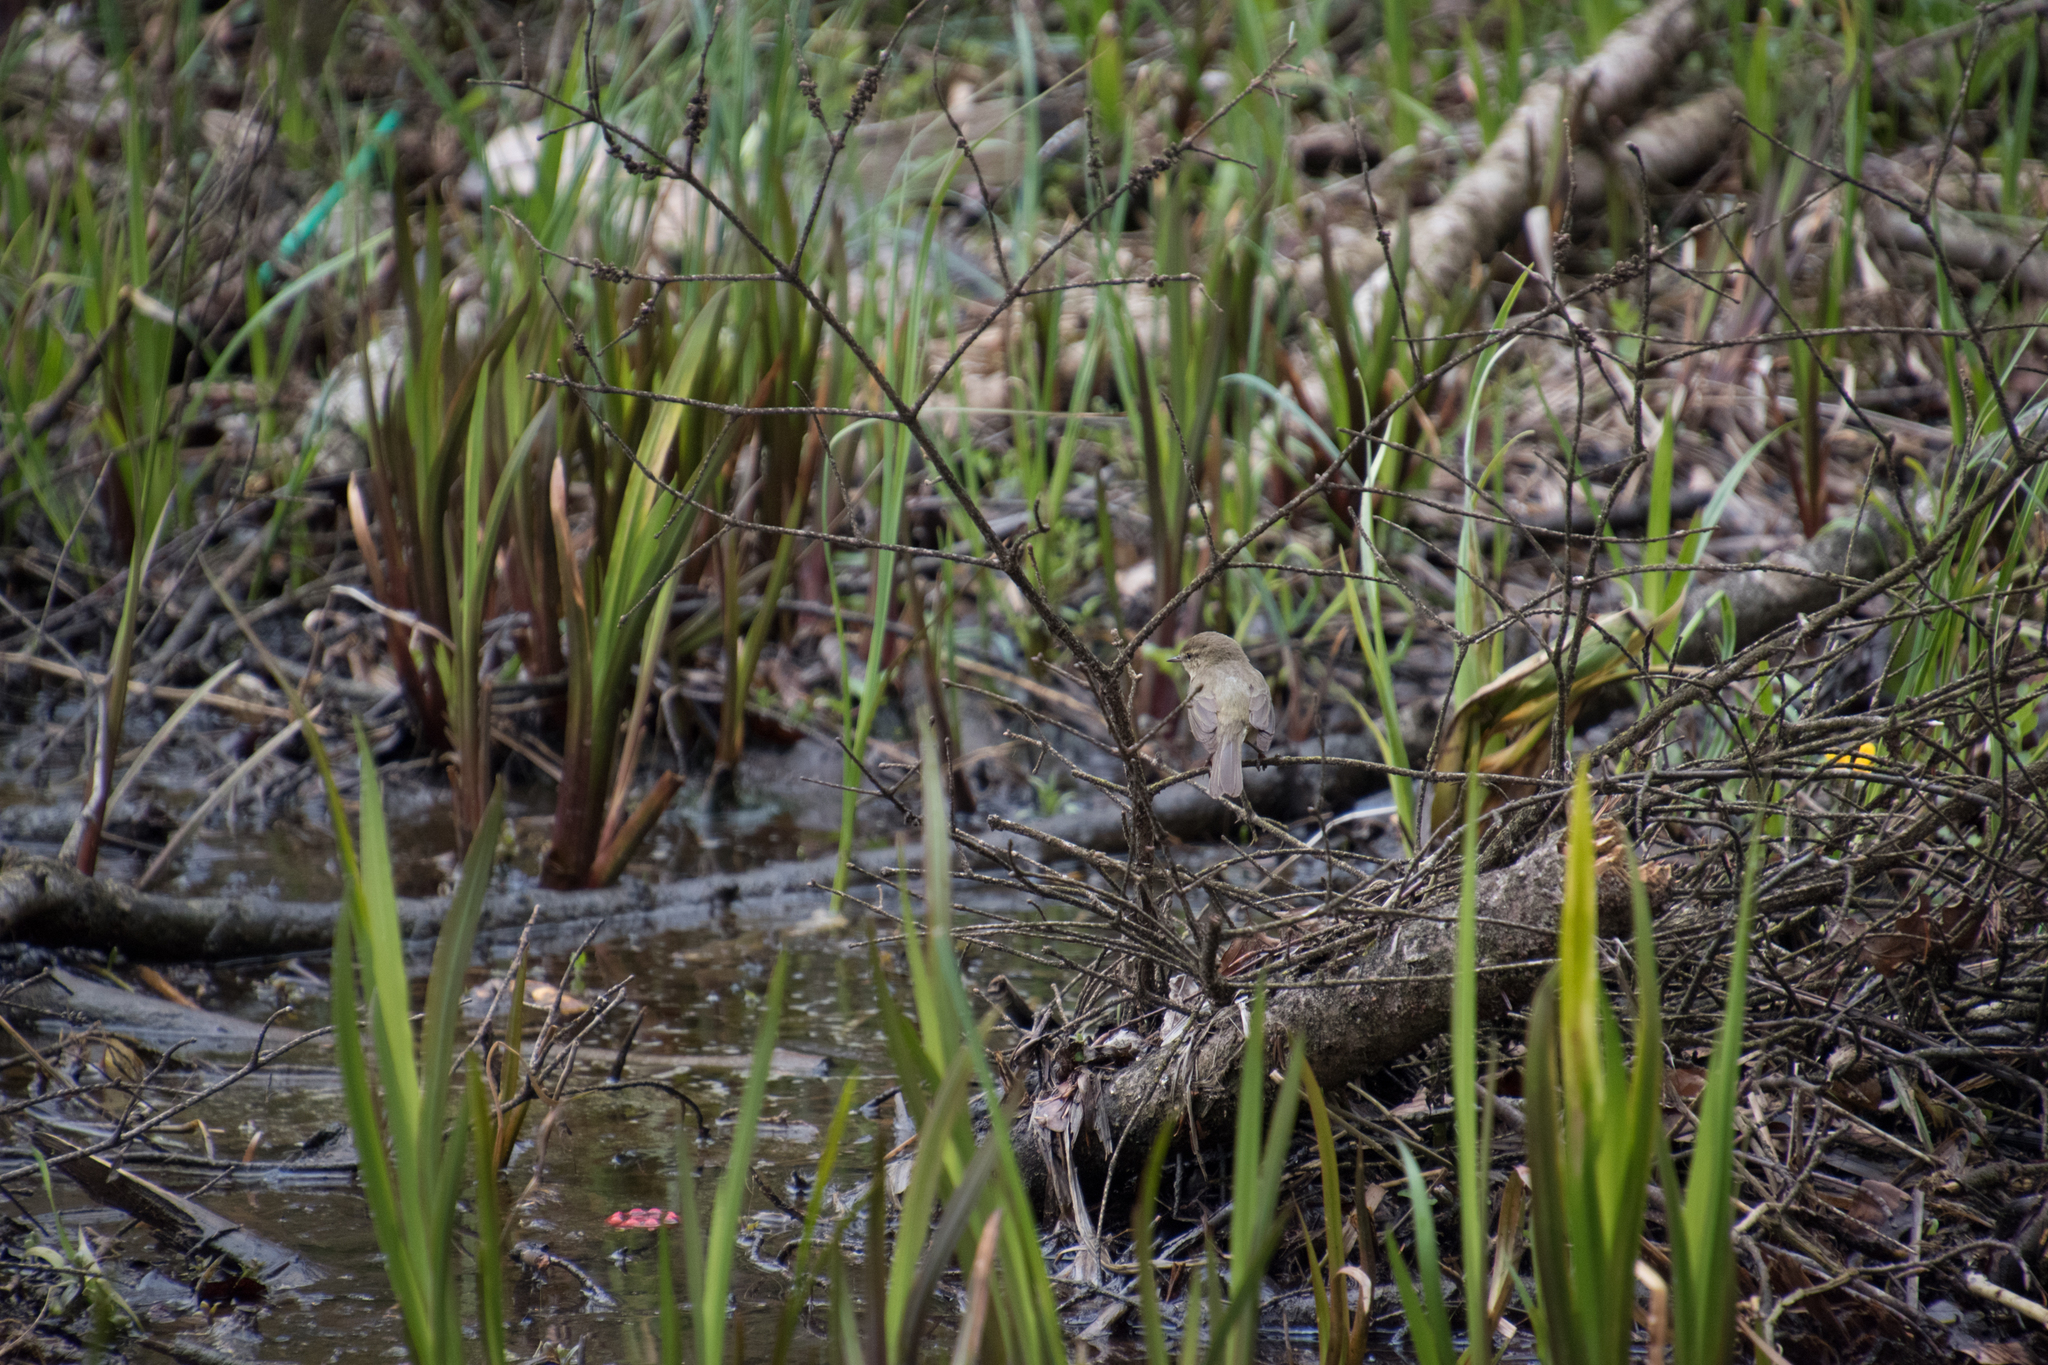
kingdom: Animalia
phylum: Chordata
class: Aves
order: Passeriformes
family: Phylloscopidae
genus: Phylloscopus
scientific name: Phylloscopus collybita
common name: Common chiffchaff
